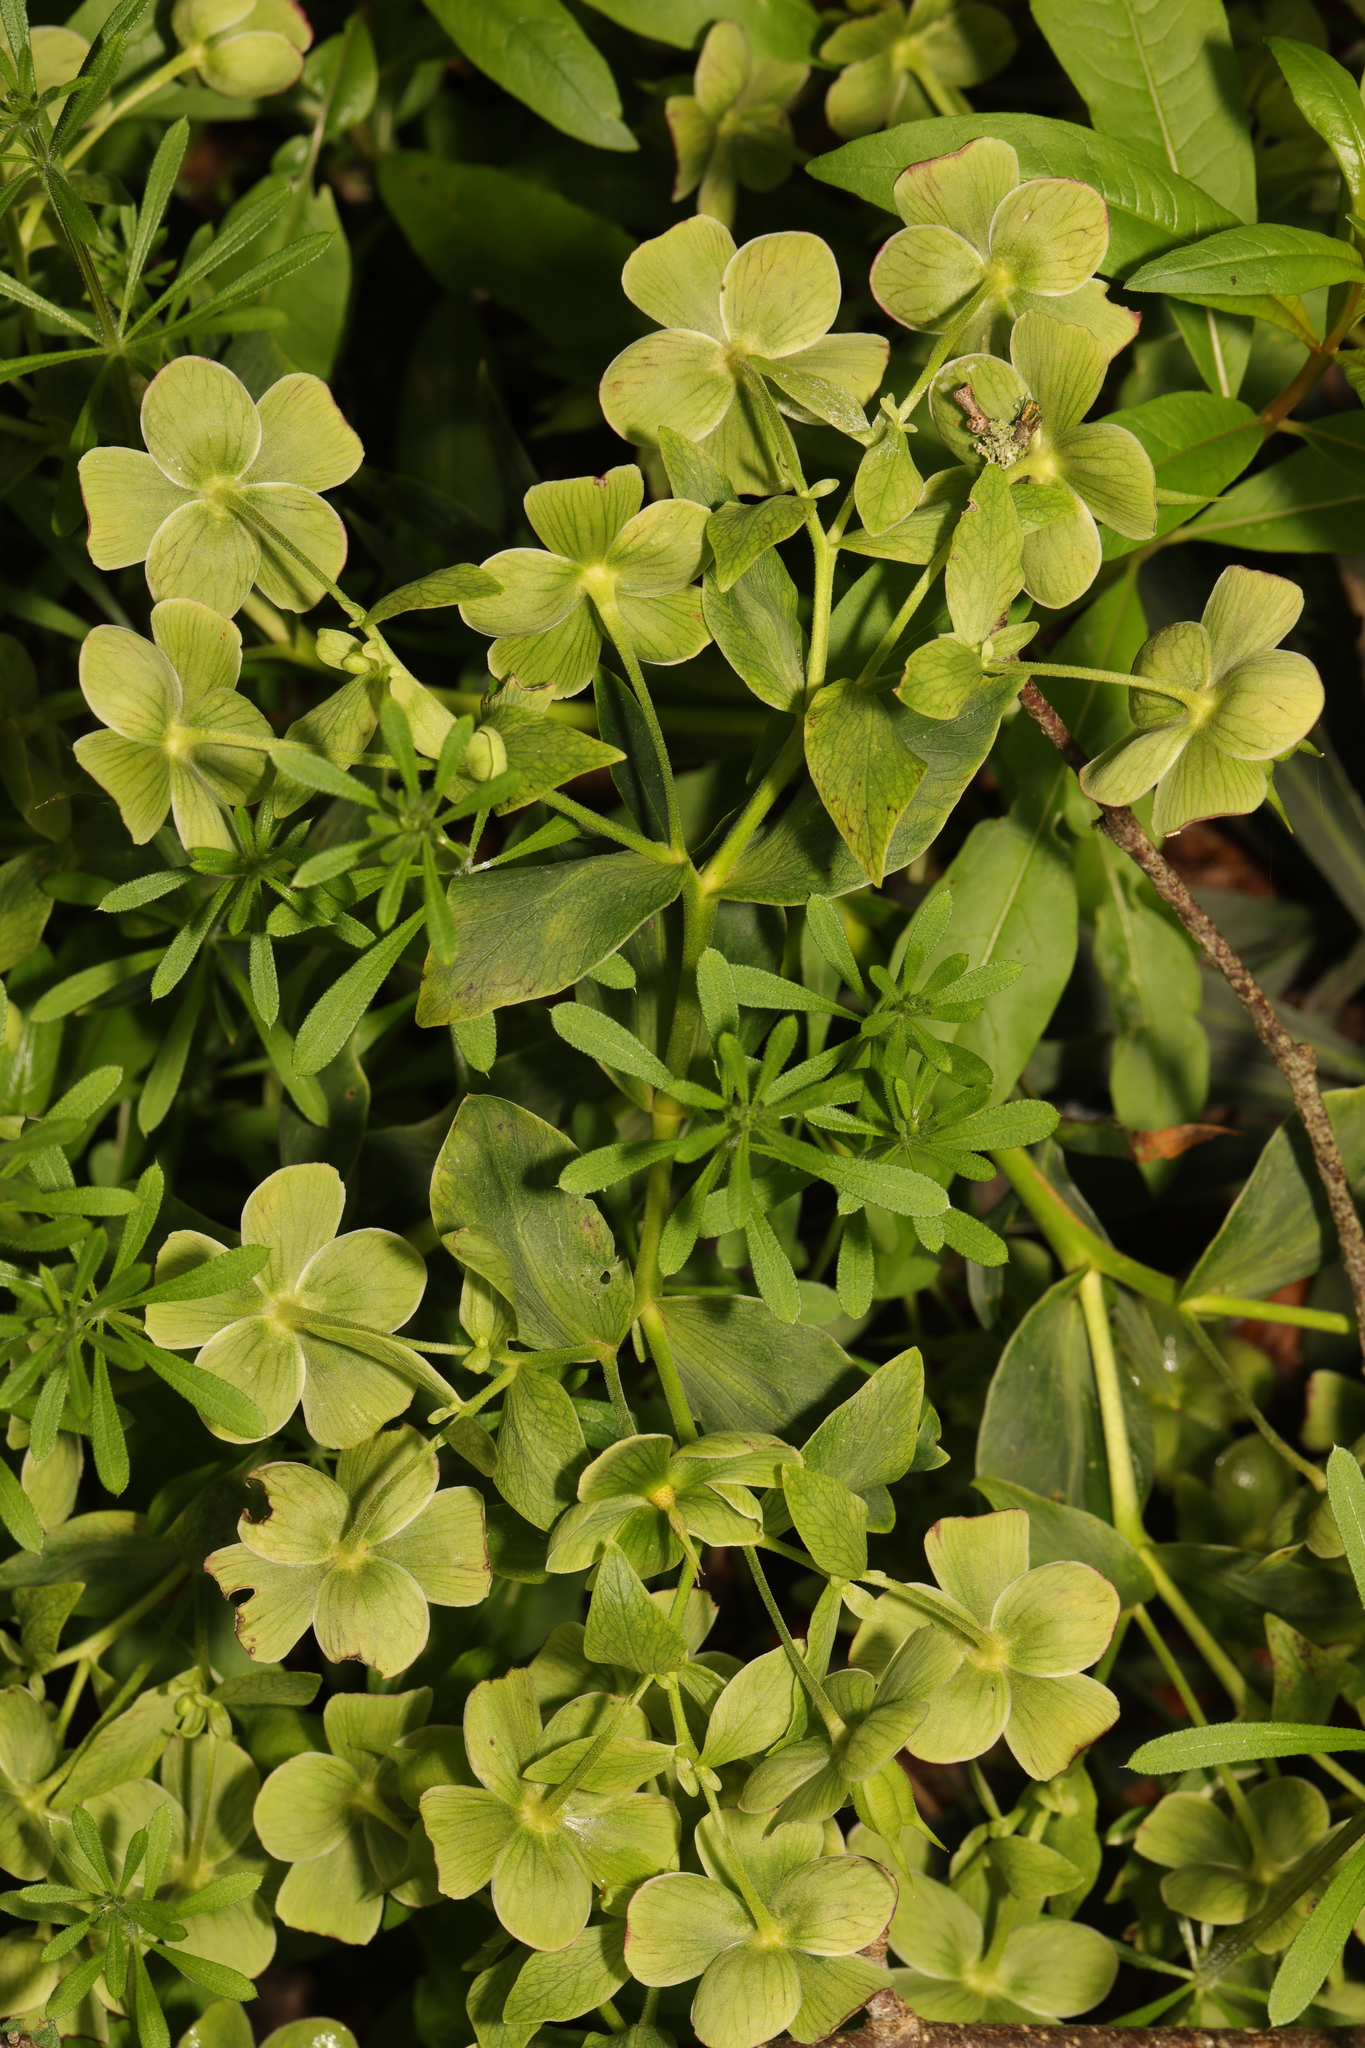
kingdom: Plantae
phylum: Tracheophyta
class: Magnoliopsida
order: Ranunculales
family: Ranunculaceae
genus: Helleborus
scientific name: Helleborus foetidus
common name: Stinking hellebore
